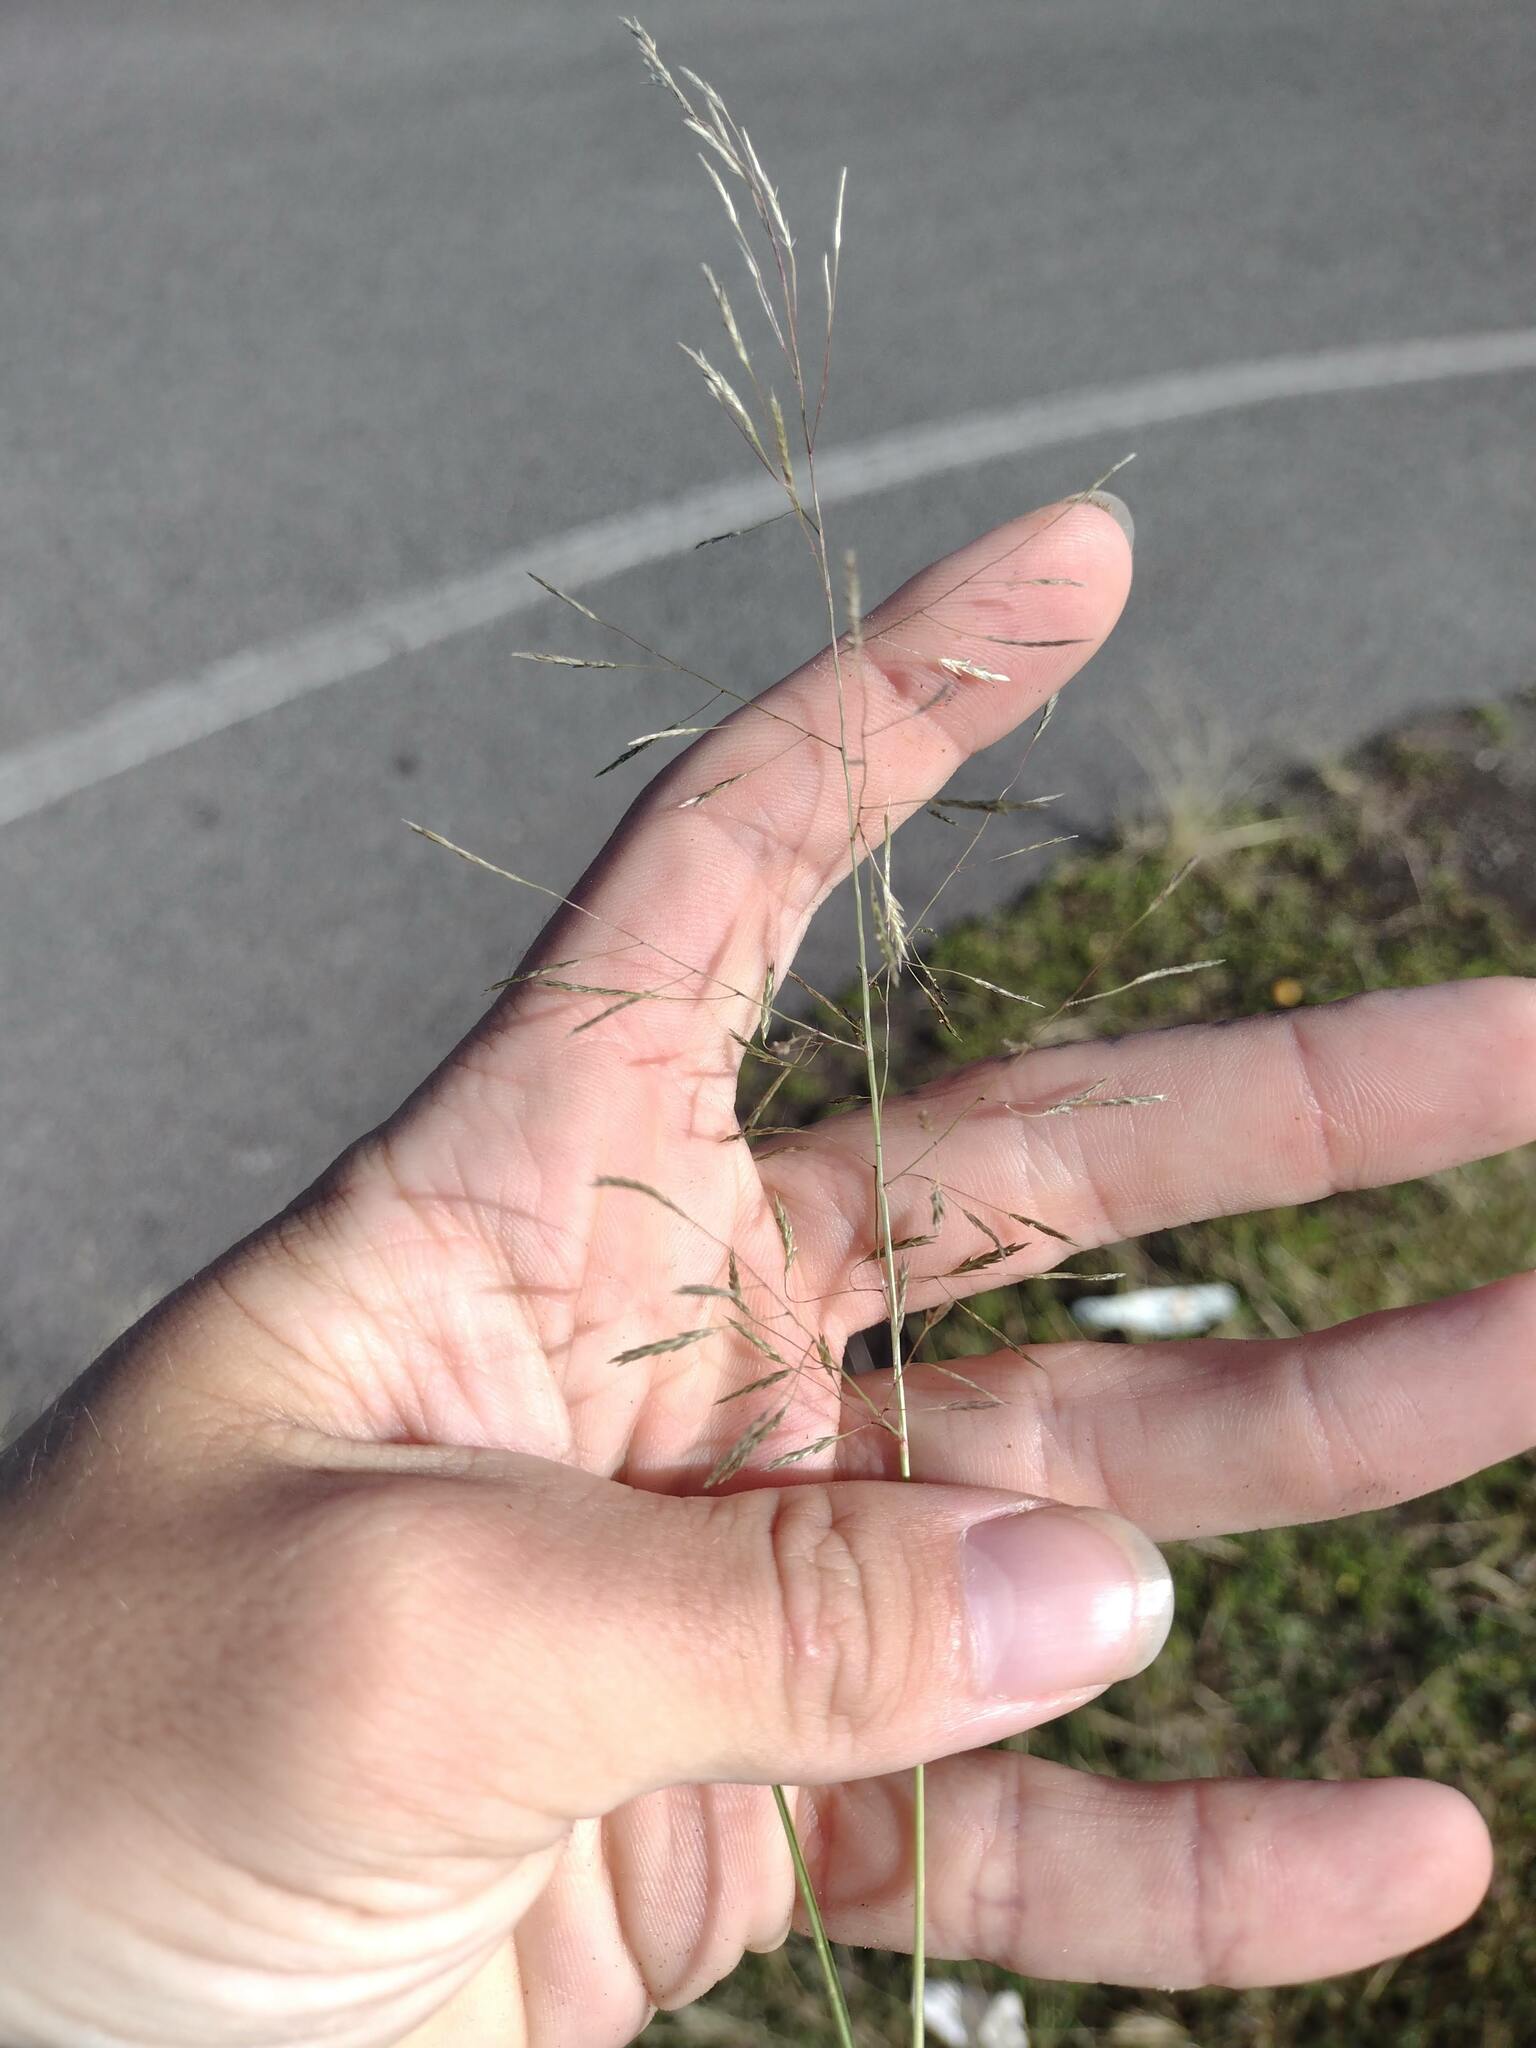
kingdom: Plantae
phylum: Tracheophyta
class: Liliopsida
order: Poales
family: Poaceae
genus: Eragrostis
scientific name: Eragrostis tenuifolia
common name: Elastic grass
